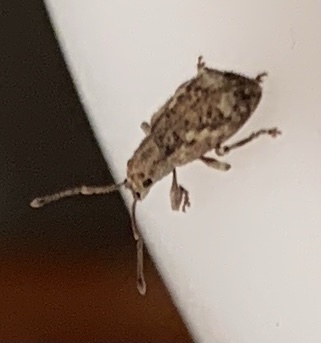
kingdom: Animalia
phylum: Arthropoda
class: Insecta
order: Coleoptera
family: Curculionidae
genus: Pseudoedophrys
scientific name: Pseudoedophrys hilleri
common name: Weevil
